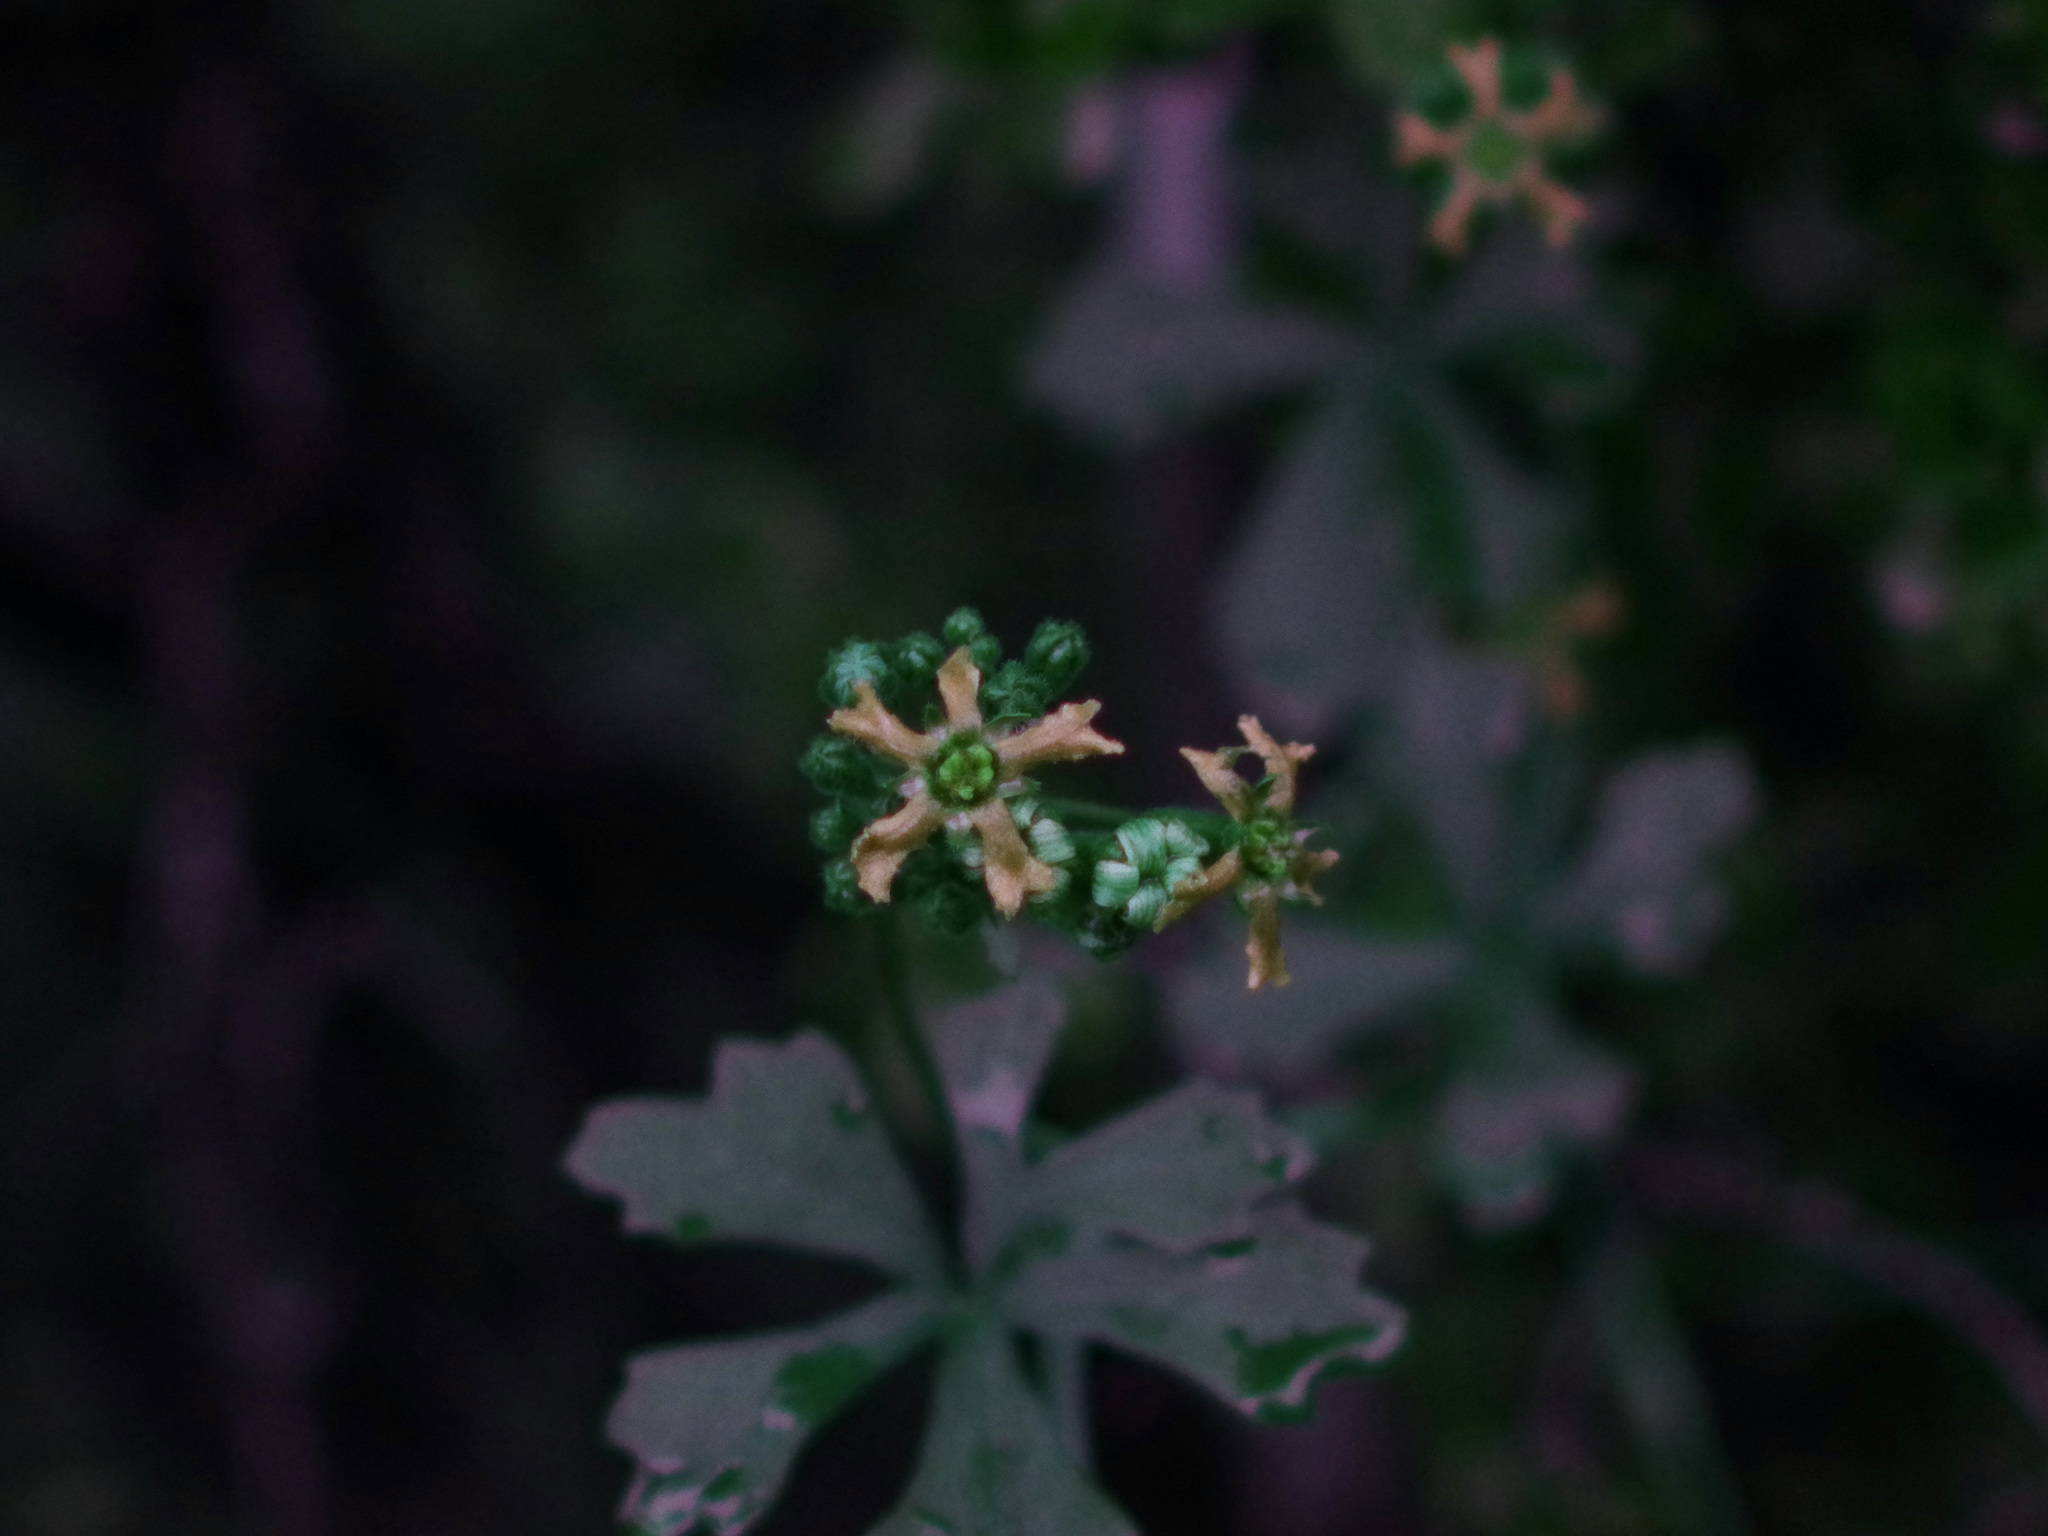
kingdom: Plantae
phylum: Tracheophyta
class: Magnoliopsida
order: Cucurbitales
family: Cucurbitaceae
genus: Ibervillea
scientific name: Ibervillea lindheimeri
